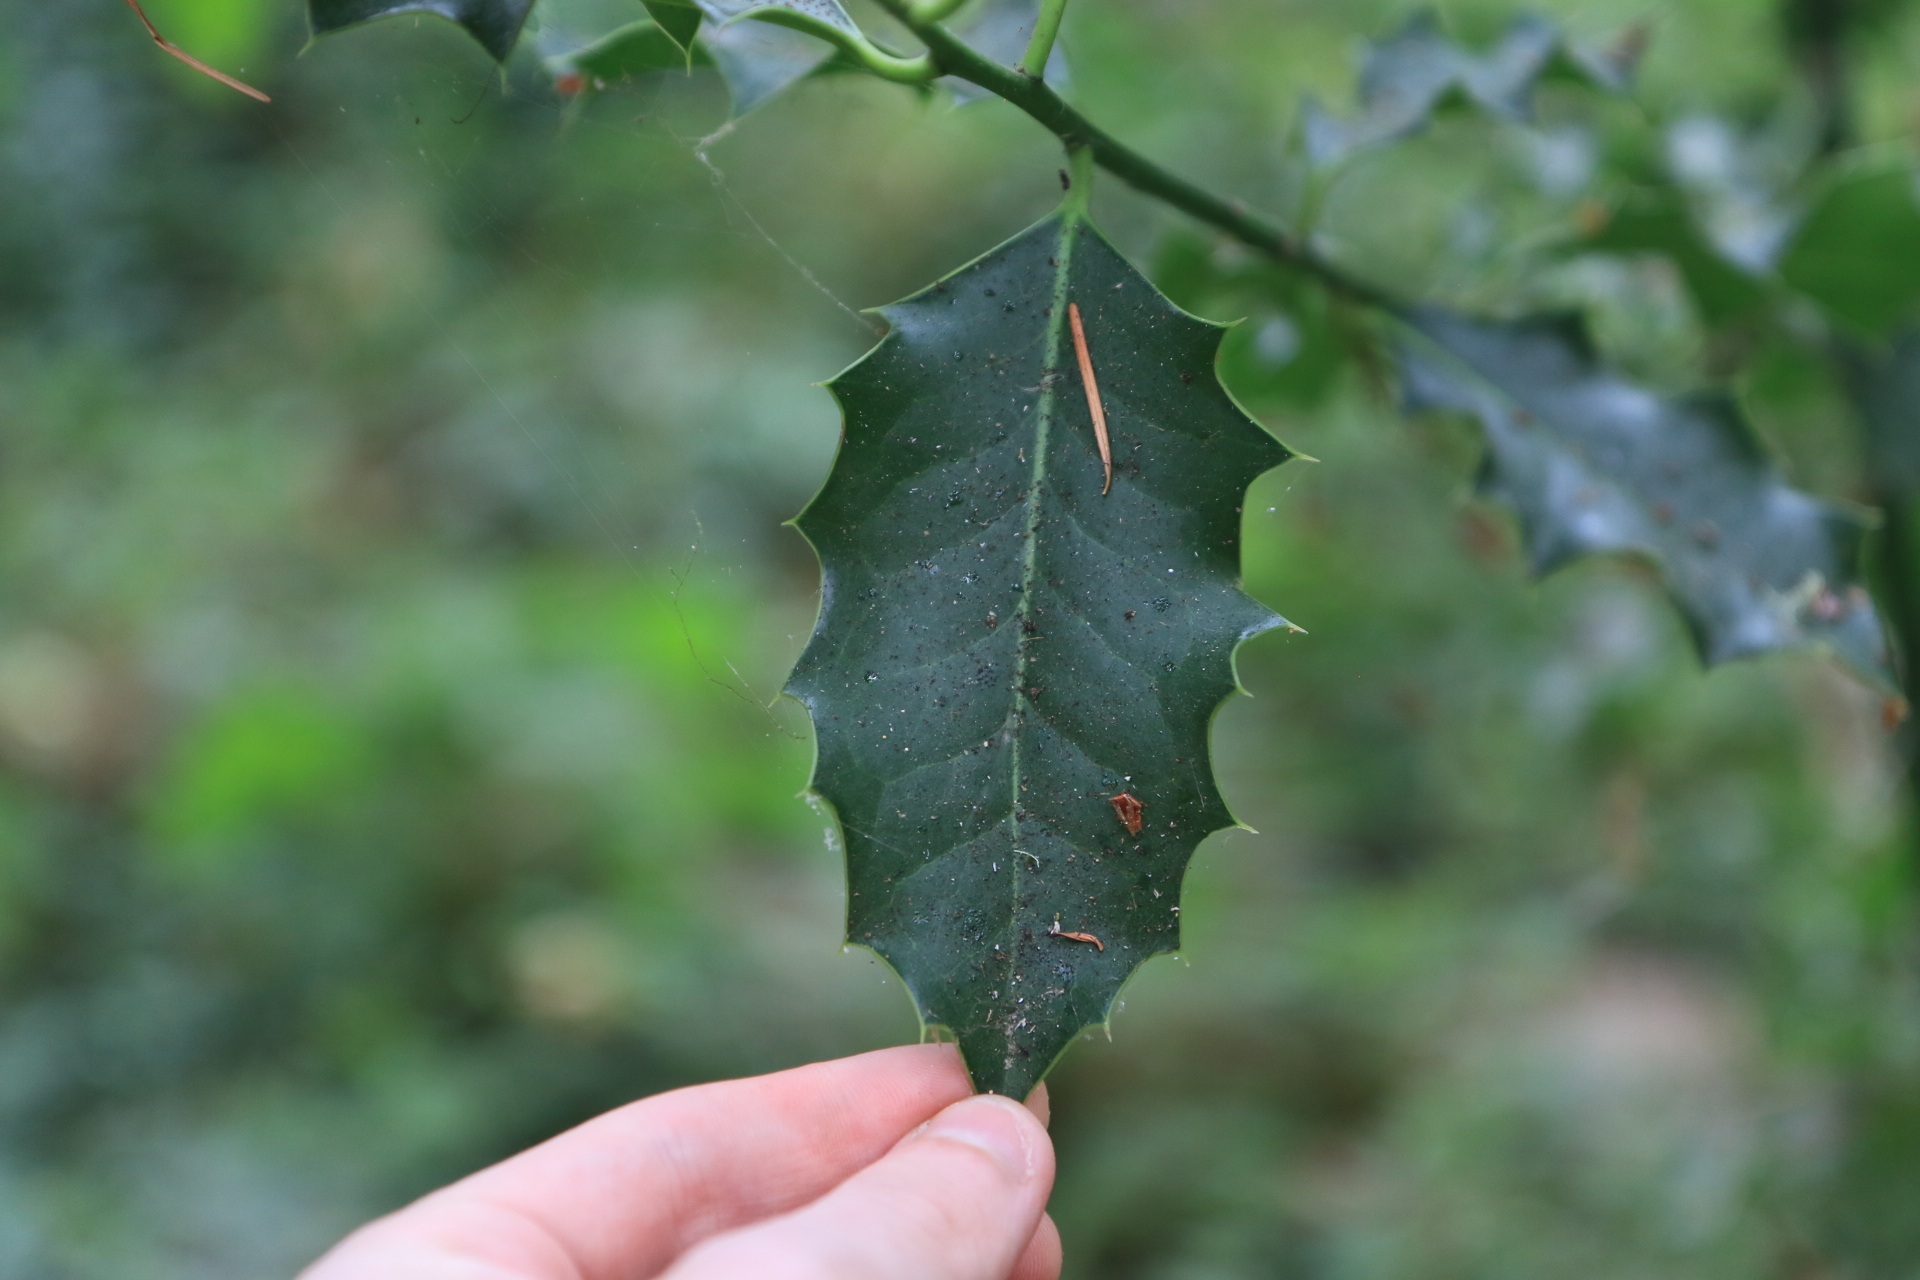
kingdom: Plantae
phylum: Tracheophyta
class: Magnoliopsida
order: Aquifoliales
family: Aquifoliaceae
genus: Ilex
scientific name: Ilex aquifolium
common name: English holly
